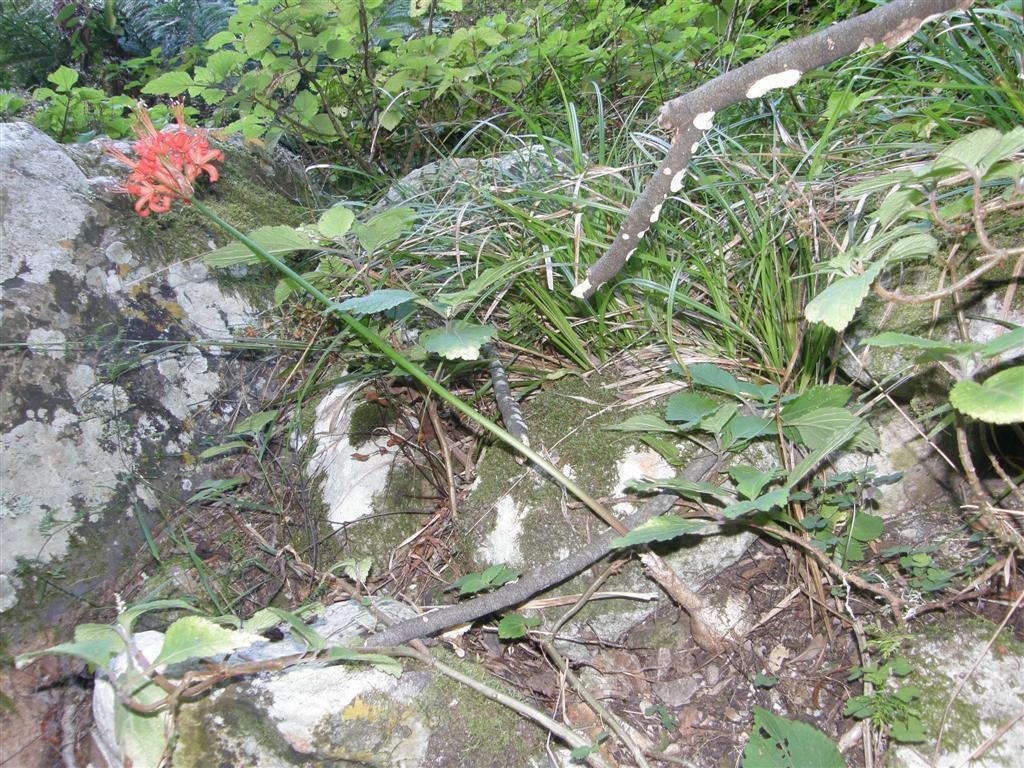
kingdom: Plantae
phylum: Tracheophyta
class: Liliopsida
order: Asparagales
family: Amaryllidaceae
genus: Nerine
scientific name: Nerine sarniensis
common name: Guernsey-lily
